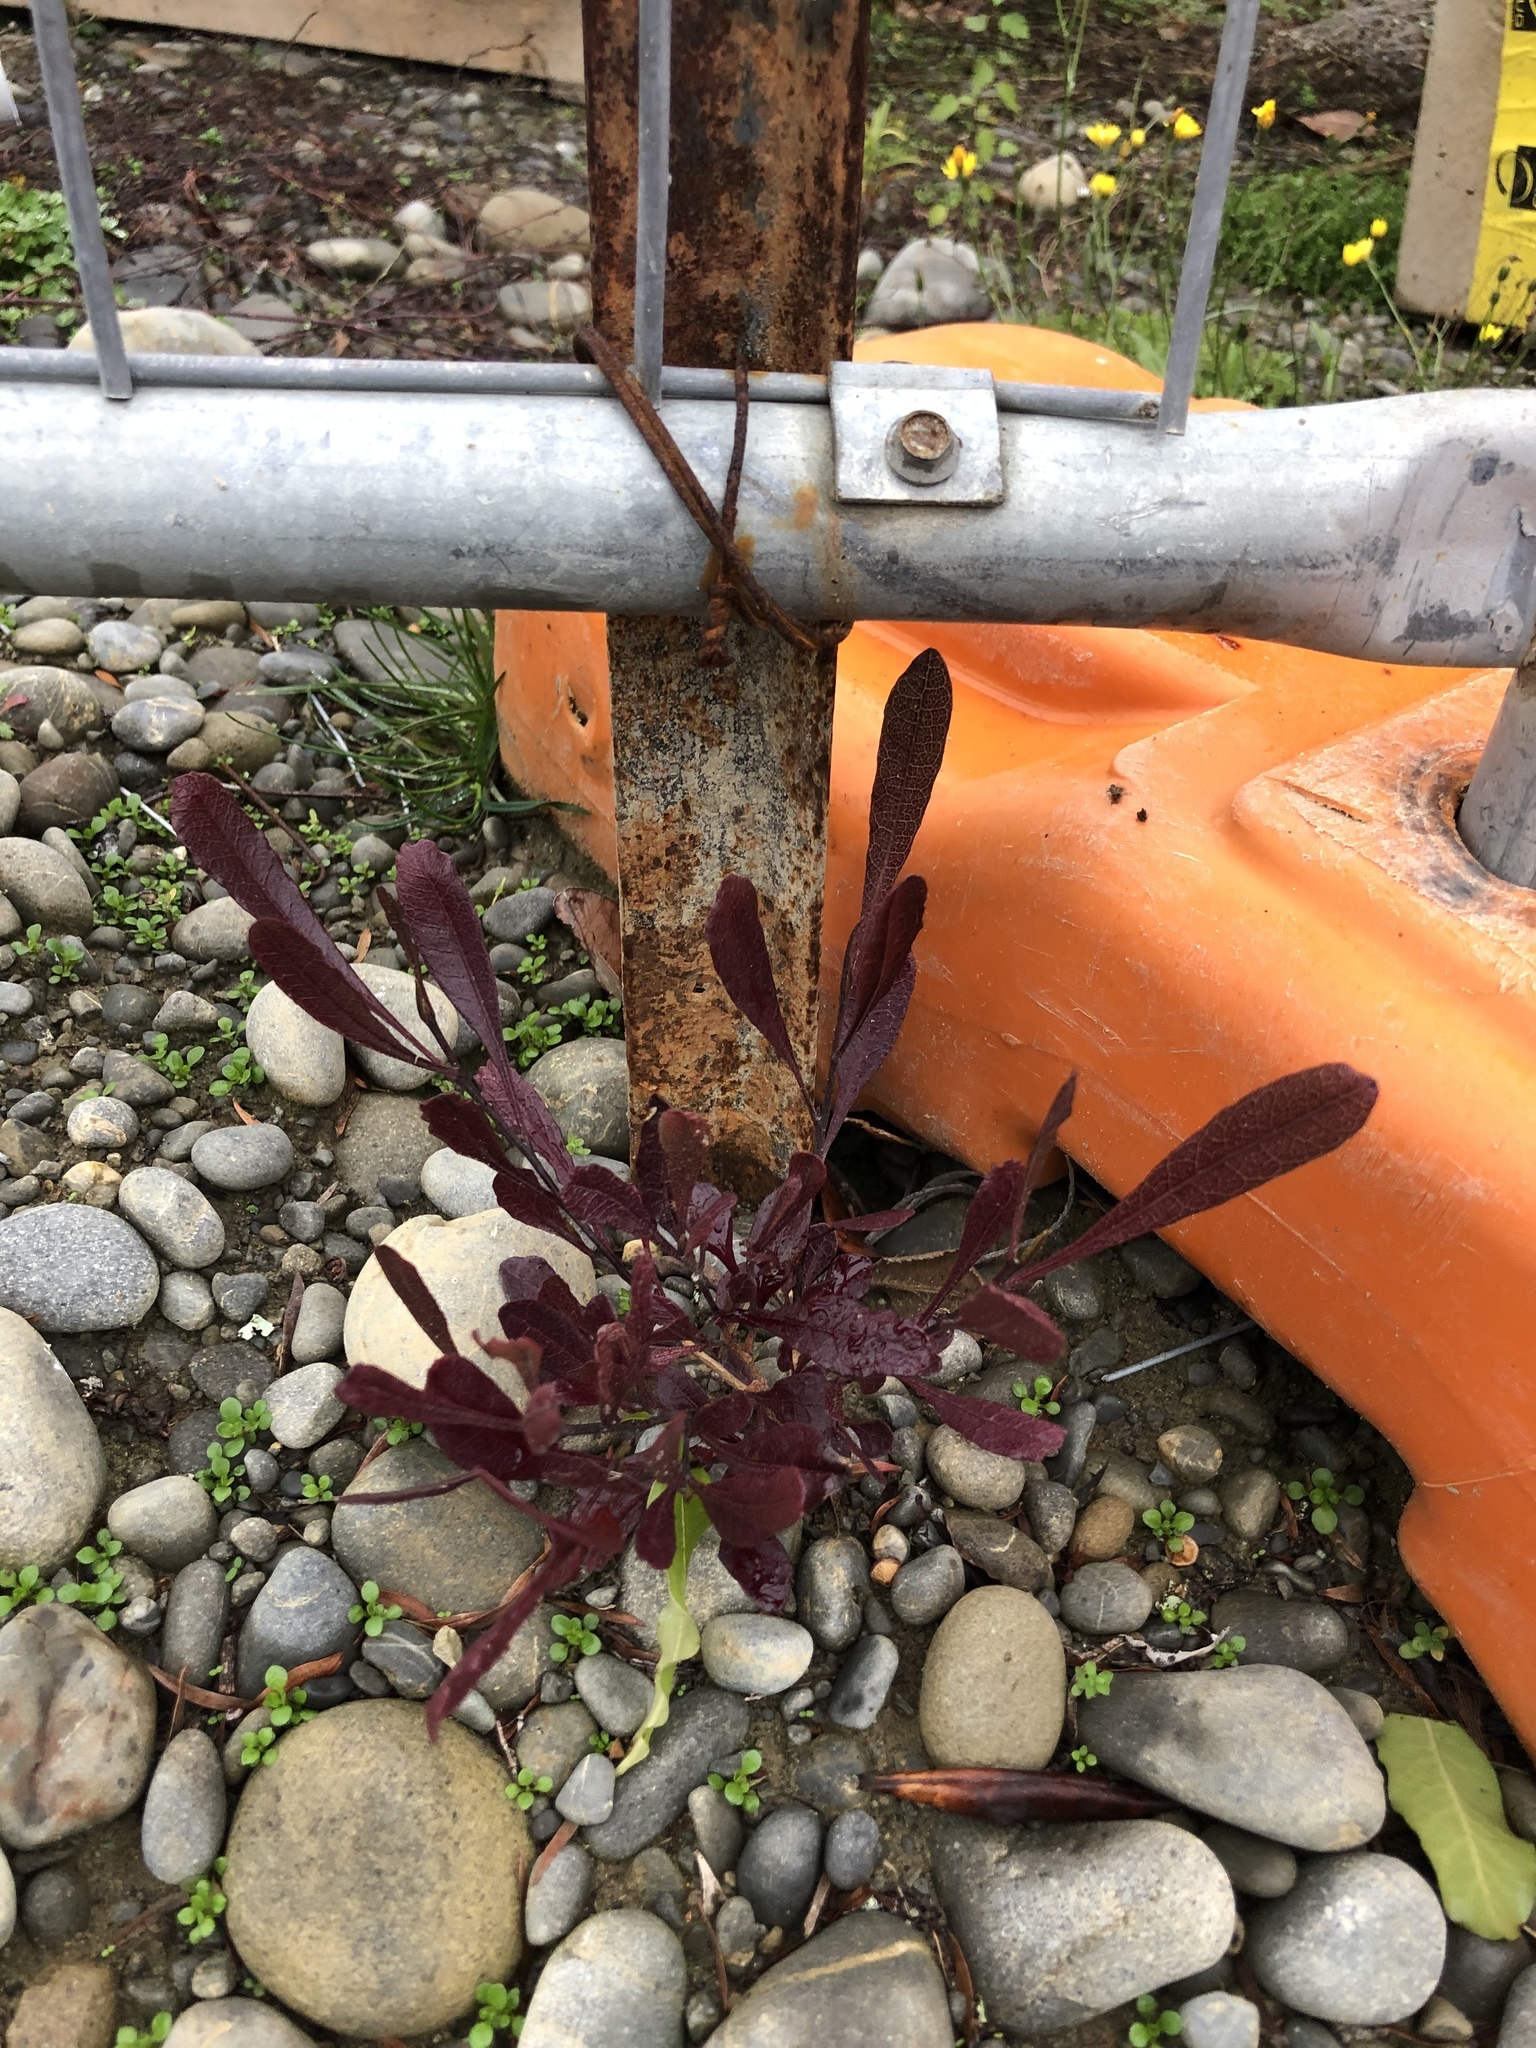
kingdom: Plantae
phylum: Tracheophyta
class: Magnoliopsida
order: Sapindales
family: Sapindaceae
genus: Dodonaea
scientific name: Dodonaea viscosa
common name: Hopbush
